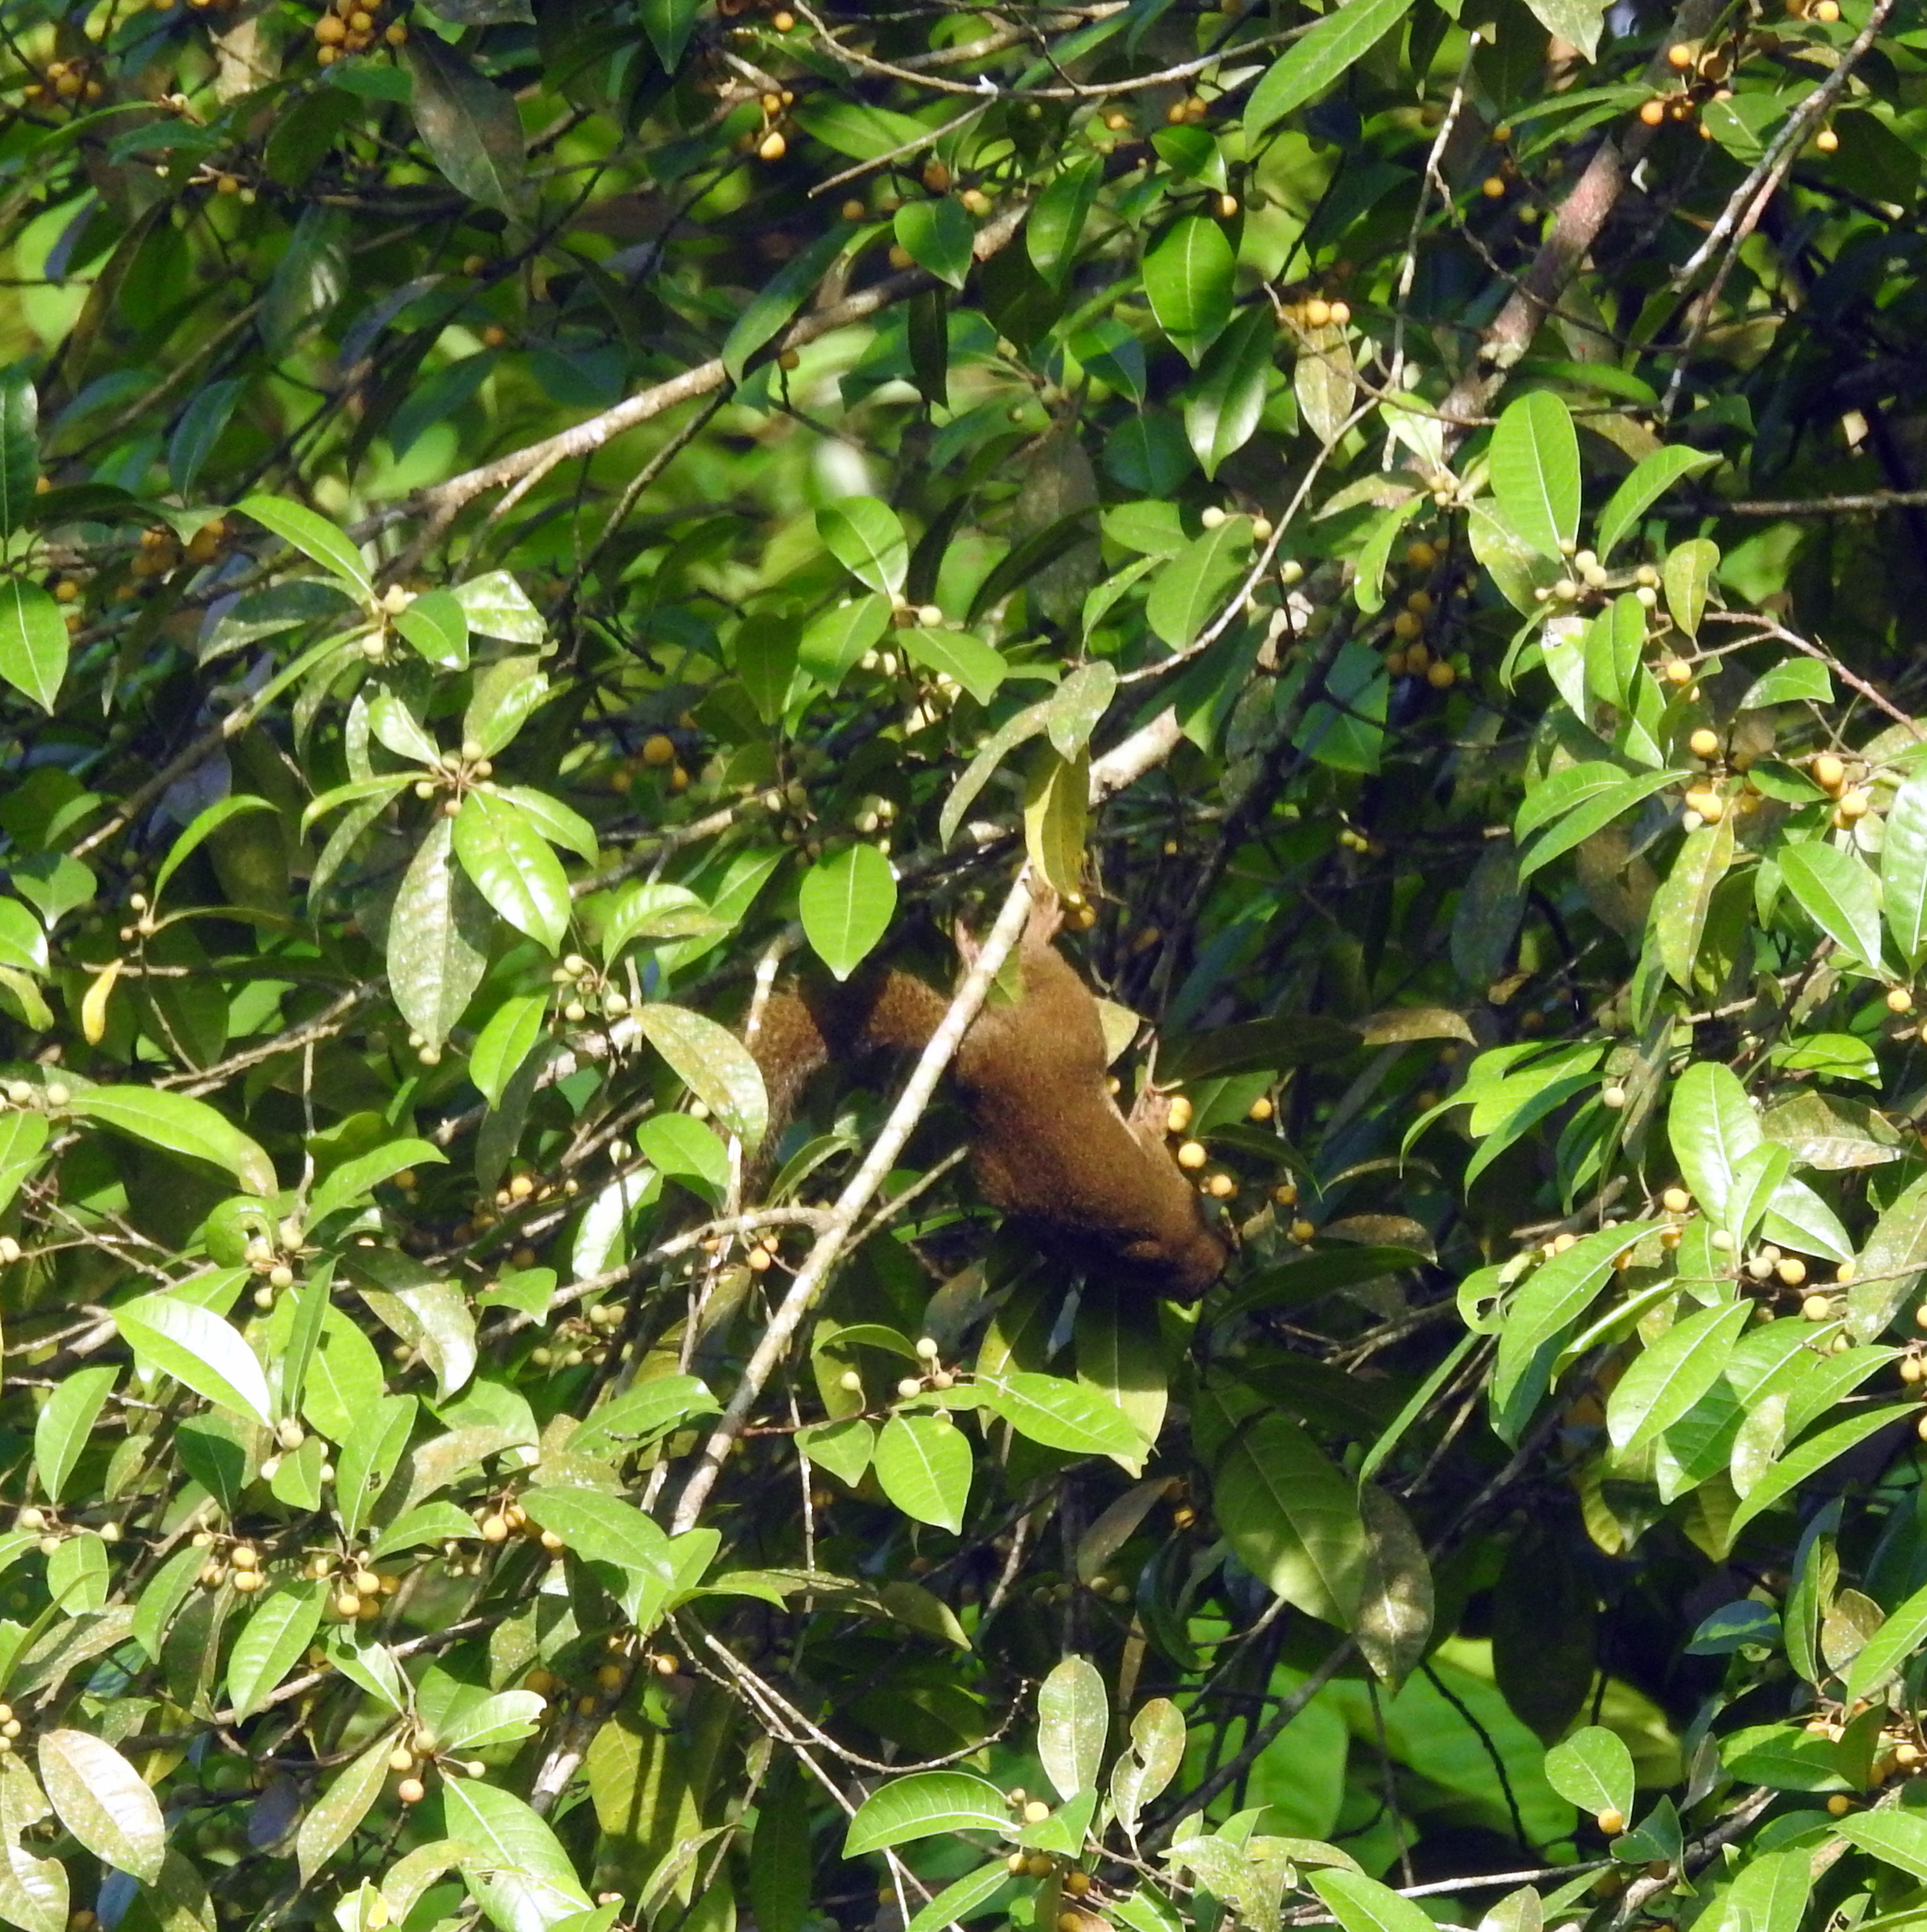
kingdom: Animalia
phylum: Chordata
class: Mammalia
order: Rodentia
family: Sciuridae
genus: Callosciurus
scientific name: Callosciurus notatus
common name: Plantain squirrel
